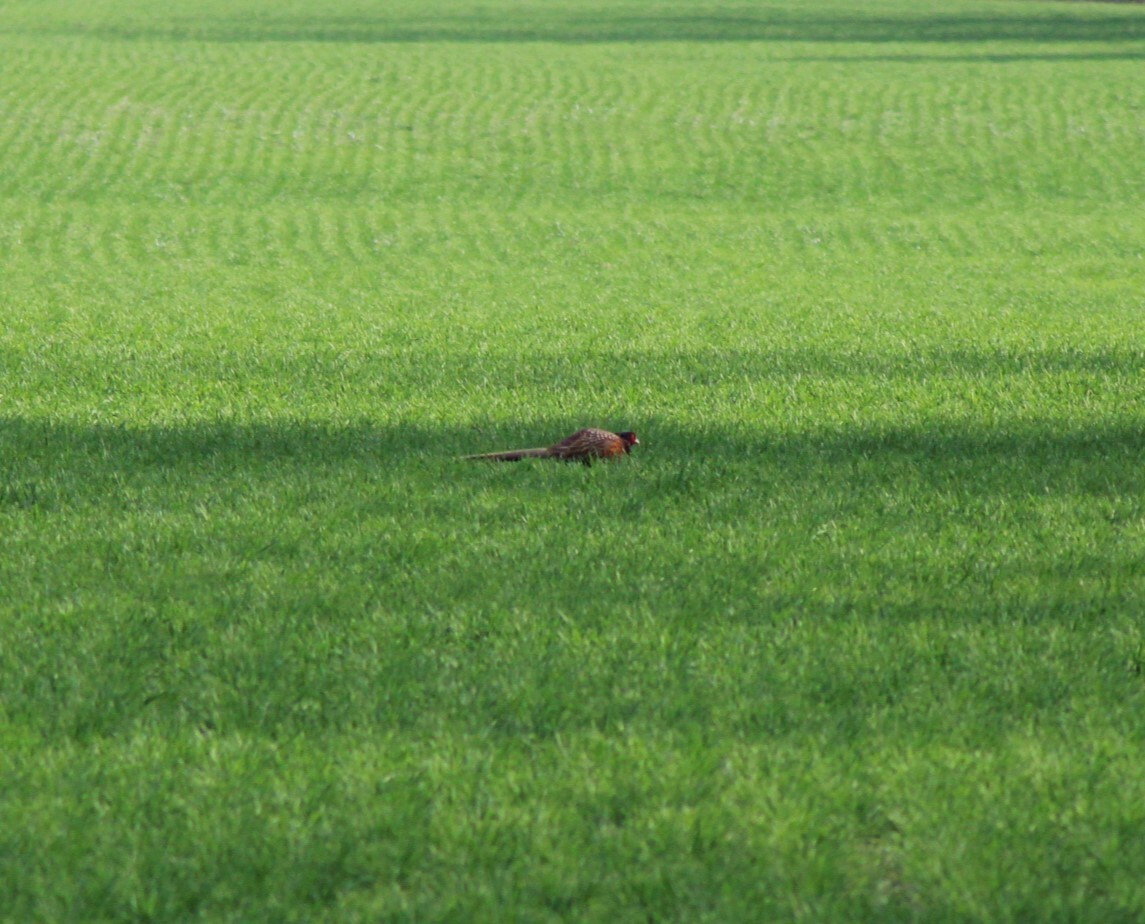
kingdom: Animalia
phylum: Chordata
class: Aves
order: Galliformes
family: Phasianidae
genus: Phasianus
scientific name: Phasianus colchicus
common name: Common pheasant
